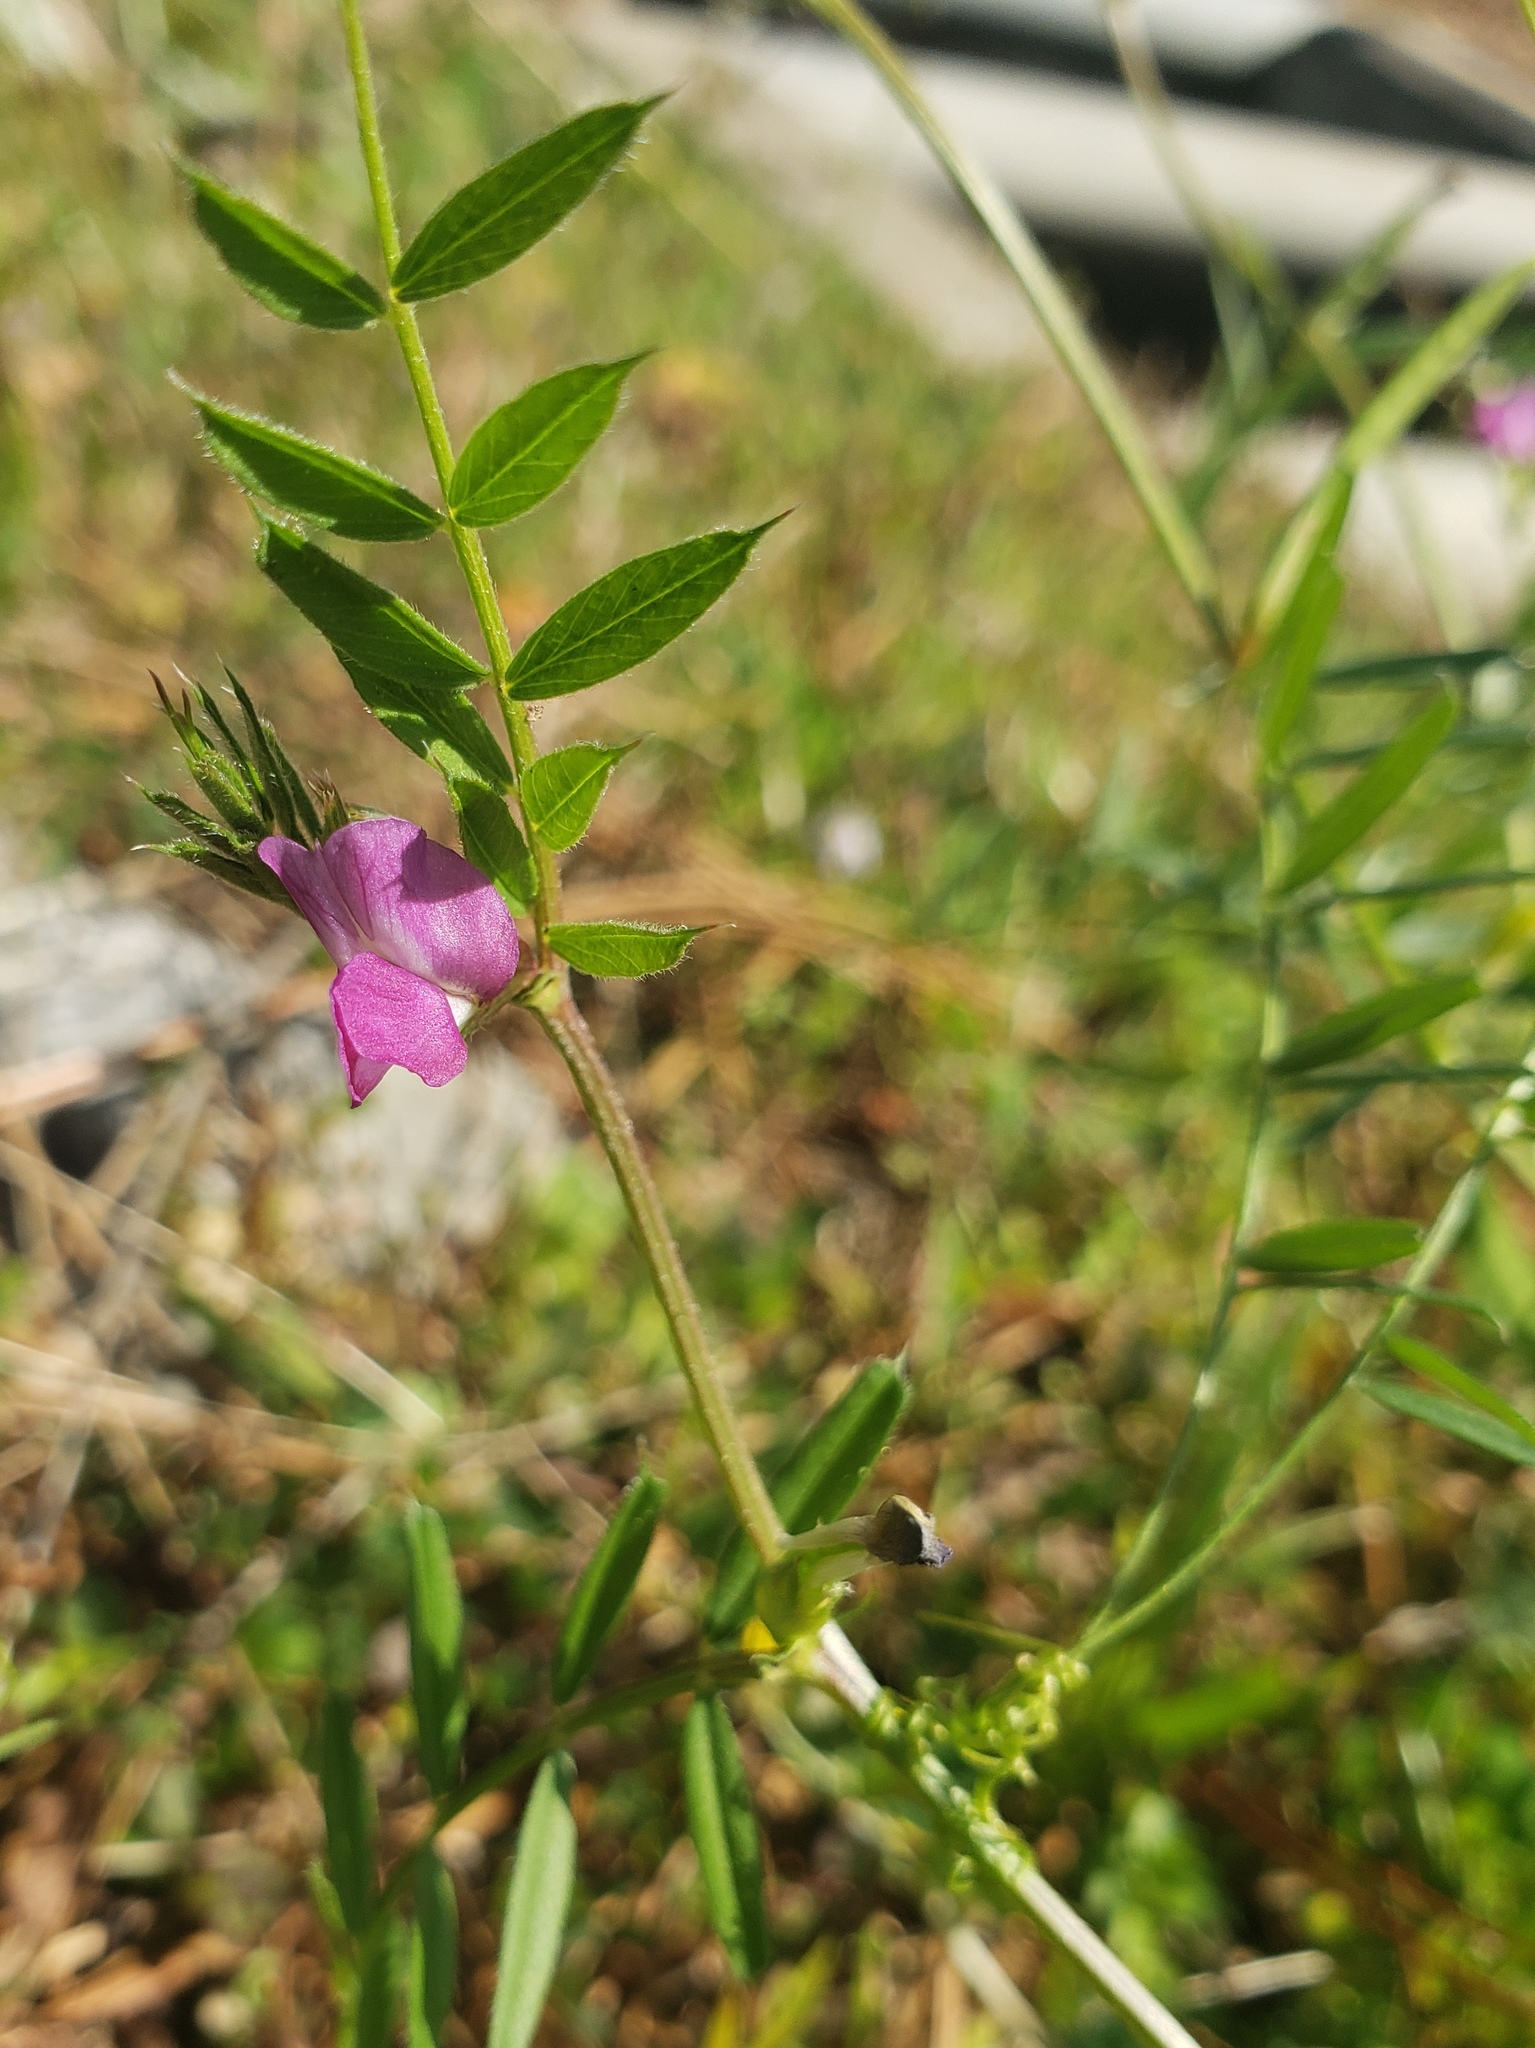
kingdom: Plantae
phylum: Tracheophyta
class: Magnoliopsida
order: Fabales
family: Fabaceae
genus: Vicia
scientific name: Vicia sativa
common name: Garden vetch
